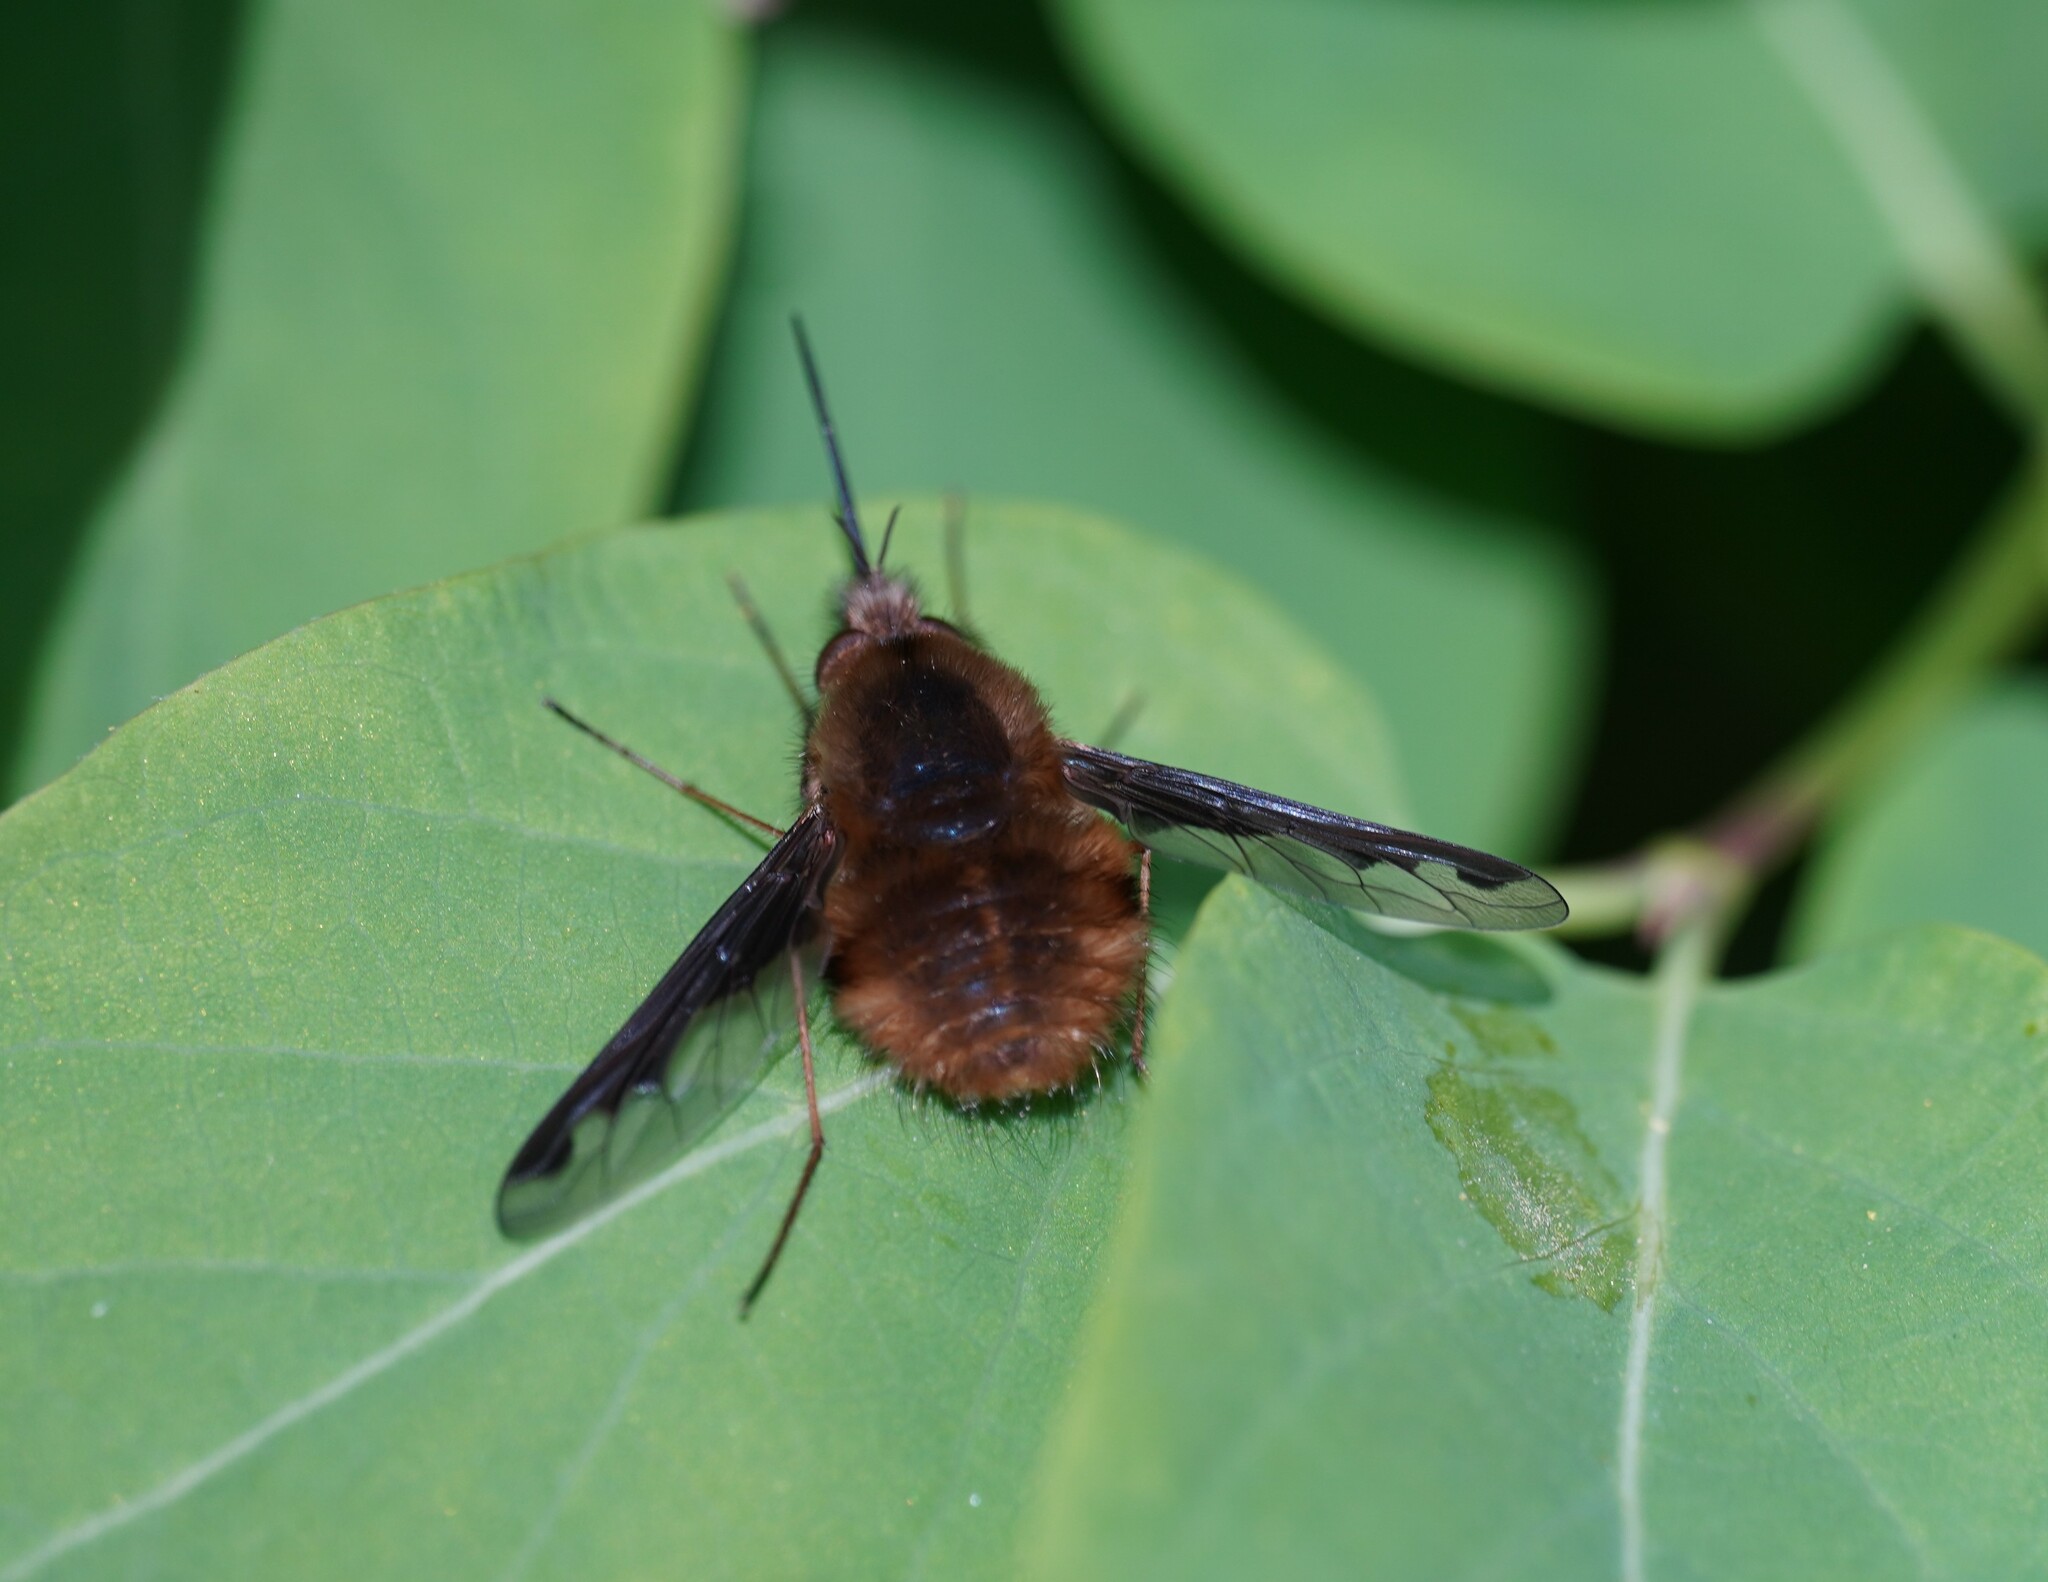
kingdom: Animalia
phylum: Arthropoda
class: Insecta
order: Diptera
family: Bombyliidae
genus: Bombylius
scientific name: Bombylius major
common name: Bee fly
